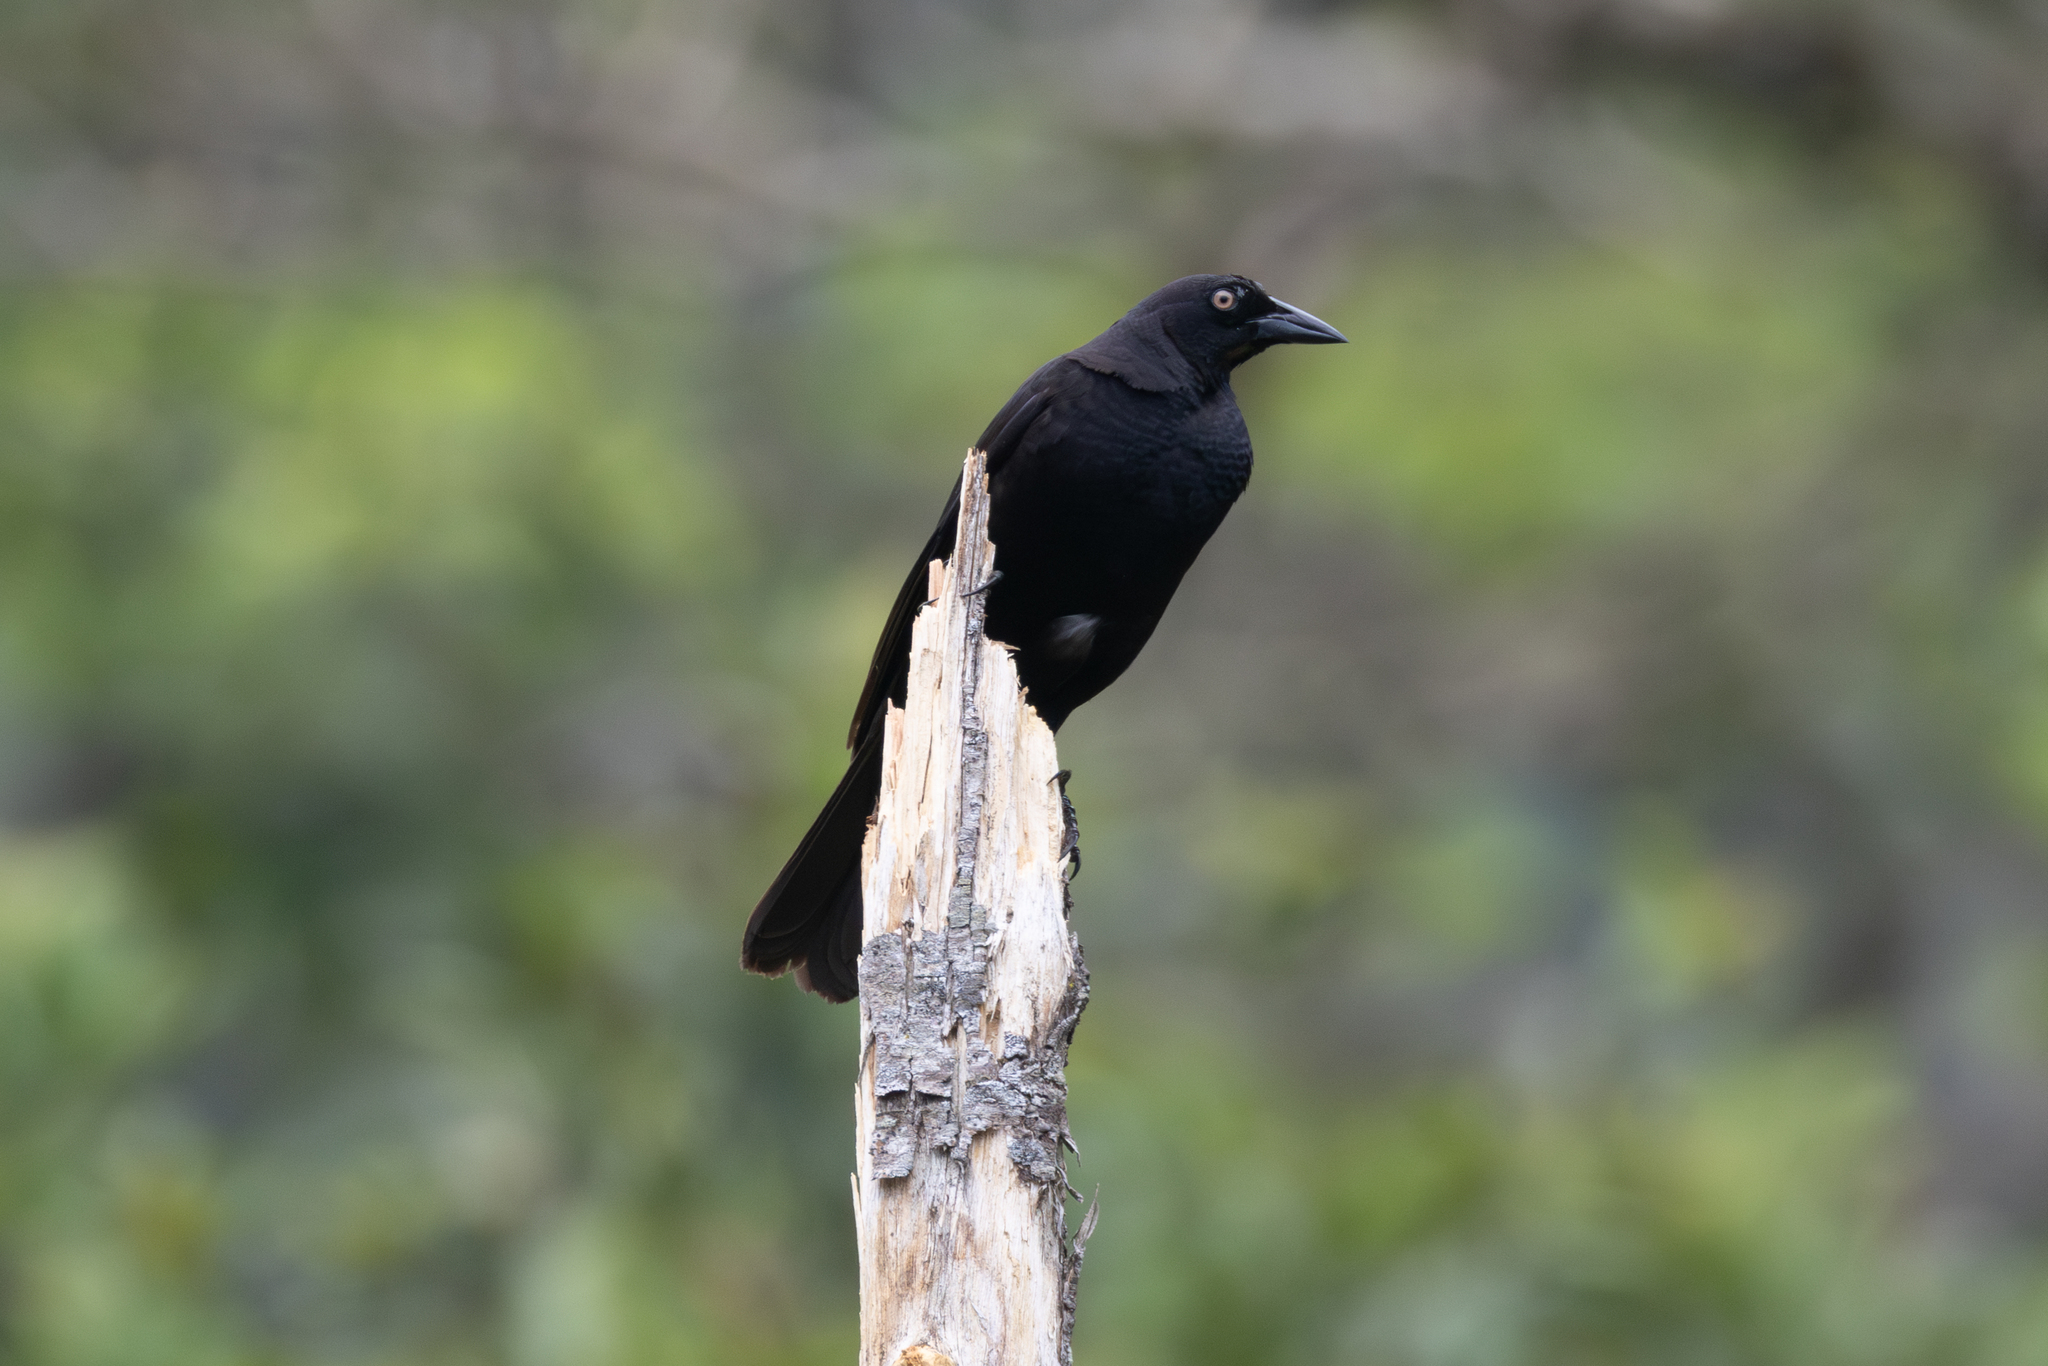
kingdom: Animalia
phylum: Chordata
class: Aves
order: Passeriformes
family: Icteridae
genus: Molothrus
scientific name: Molothrus oryzivorus
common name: Giant cowbird
